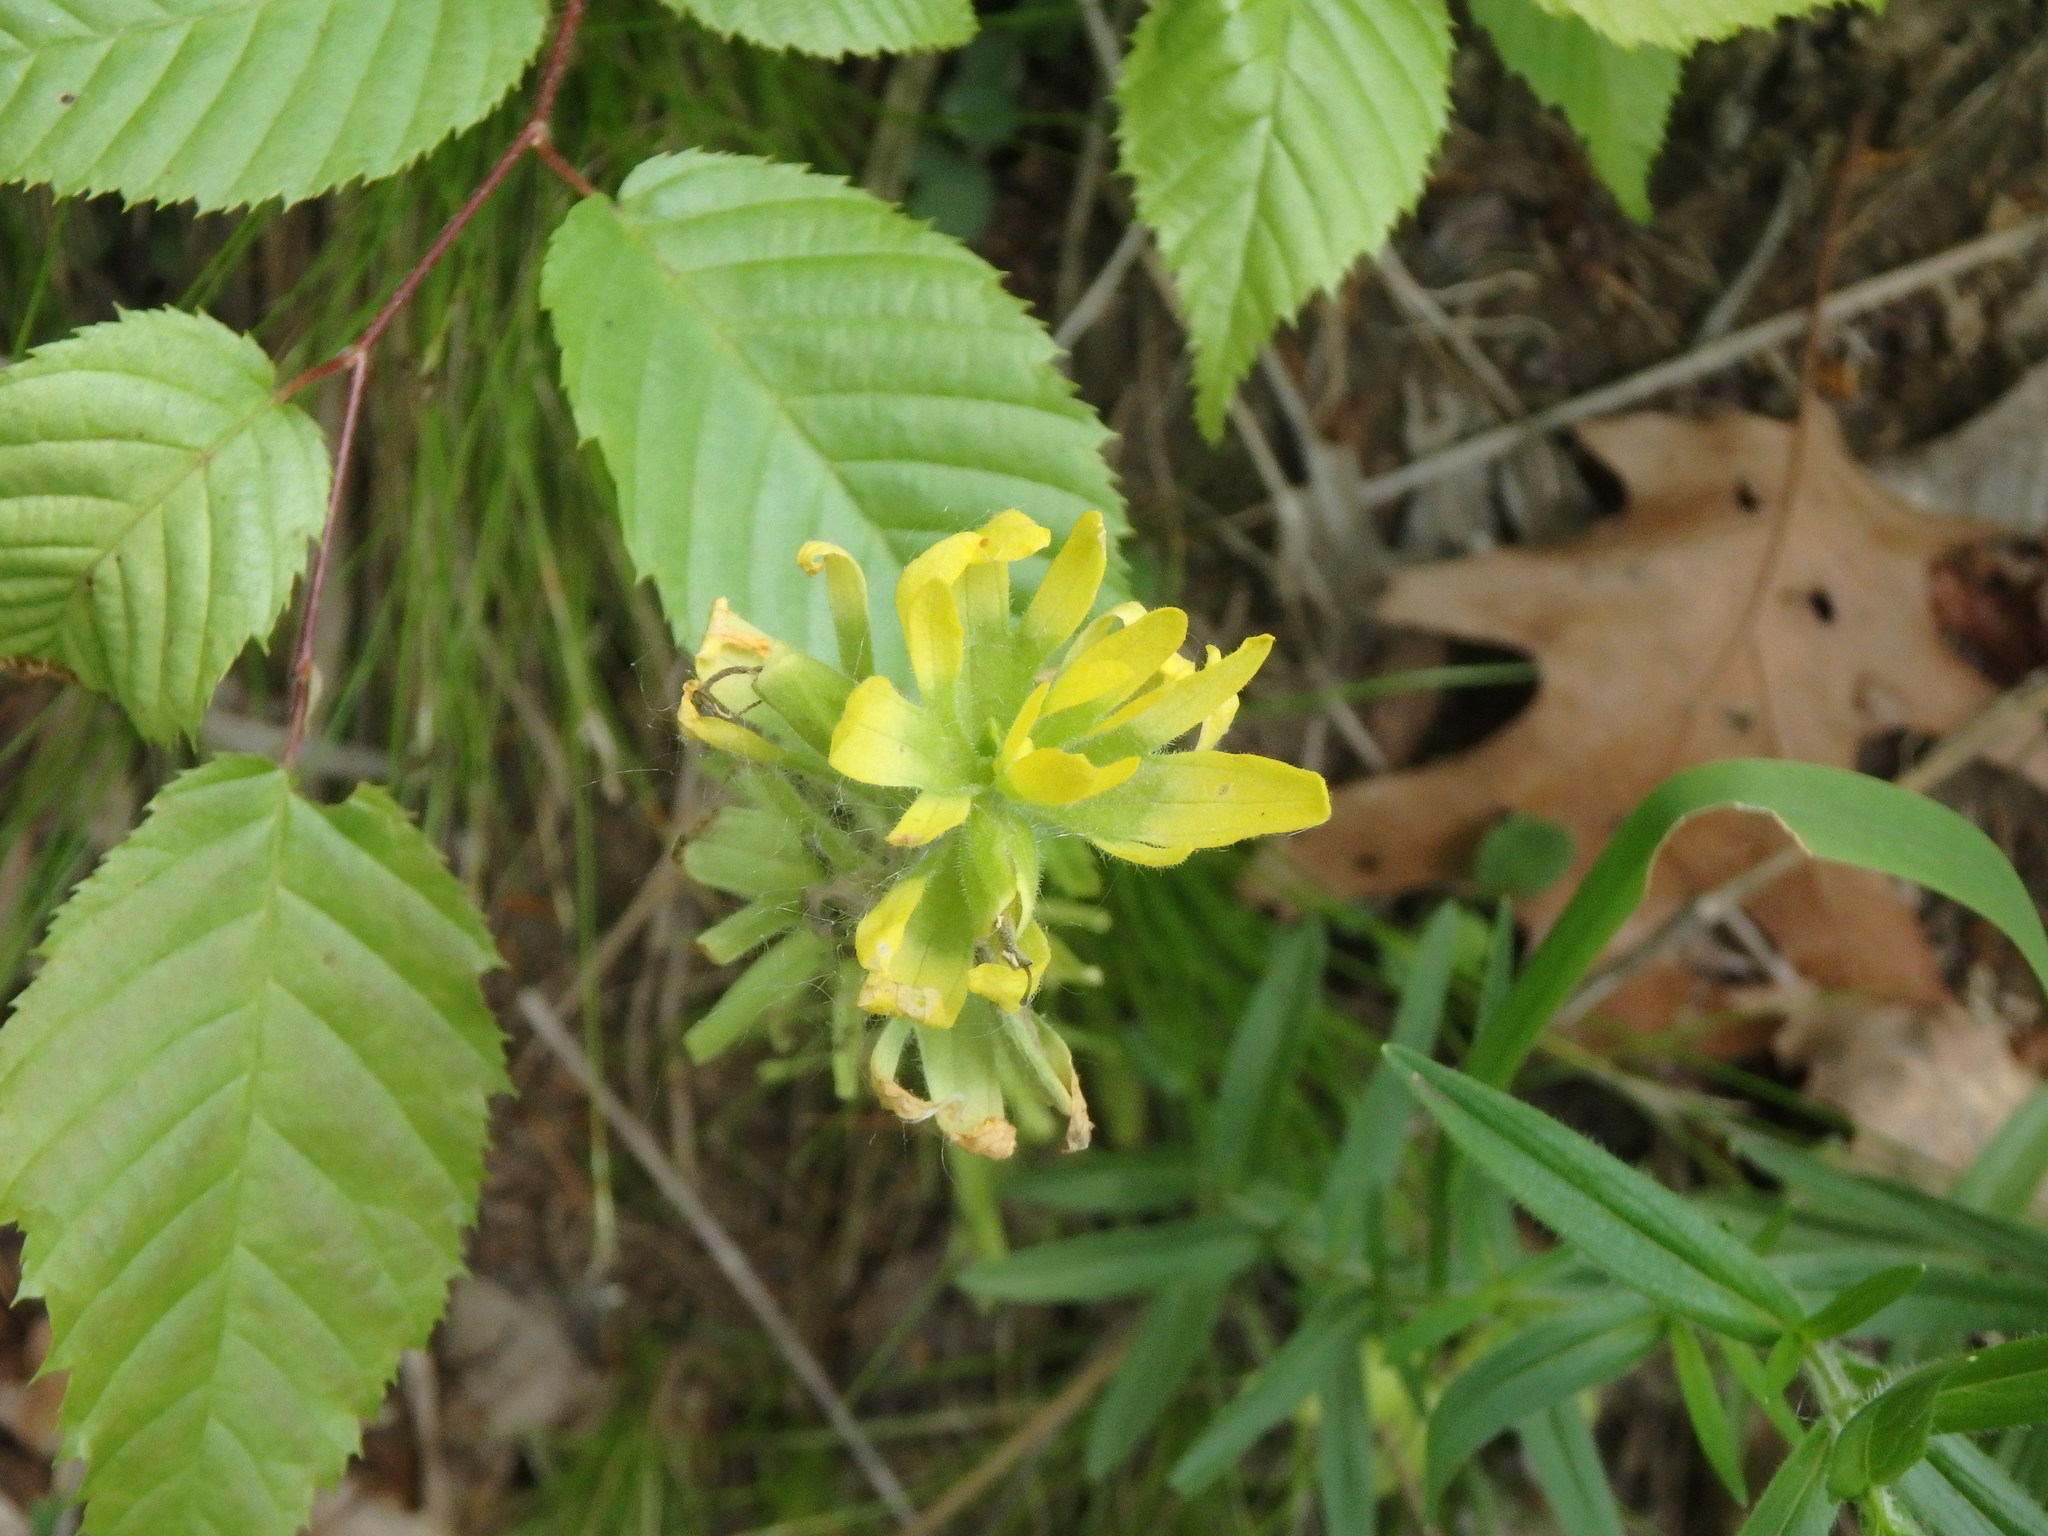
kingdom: Plantae
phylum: Tracheophyta
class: Magnoliopsida
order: Lamiales
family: Orobanchaceae
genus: Castilleja
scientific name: Castilleja coccinea
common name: Scarlet paintbrush
